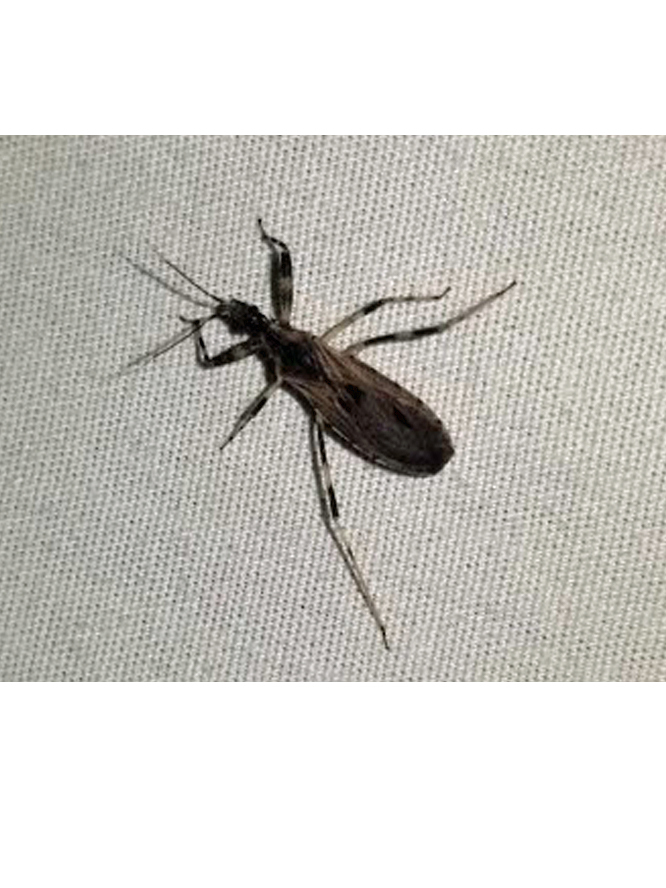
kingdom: Animalia
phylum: Arthropoda
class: Insecta
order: Hemiptera
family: Reduviidae
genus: Oncocephalus
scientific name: Oncocephalus geniculatus
